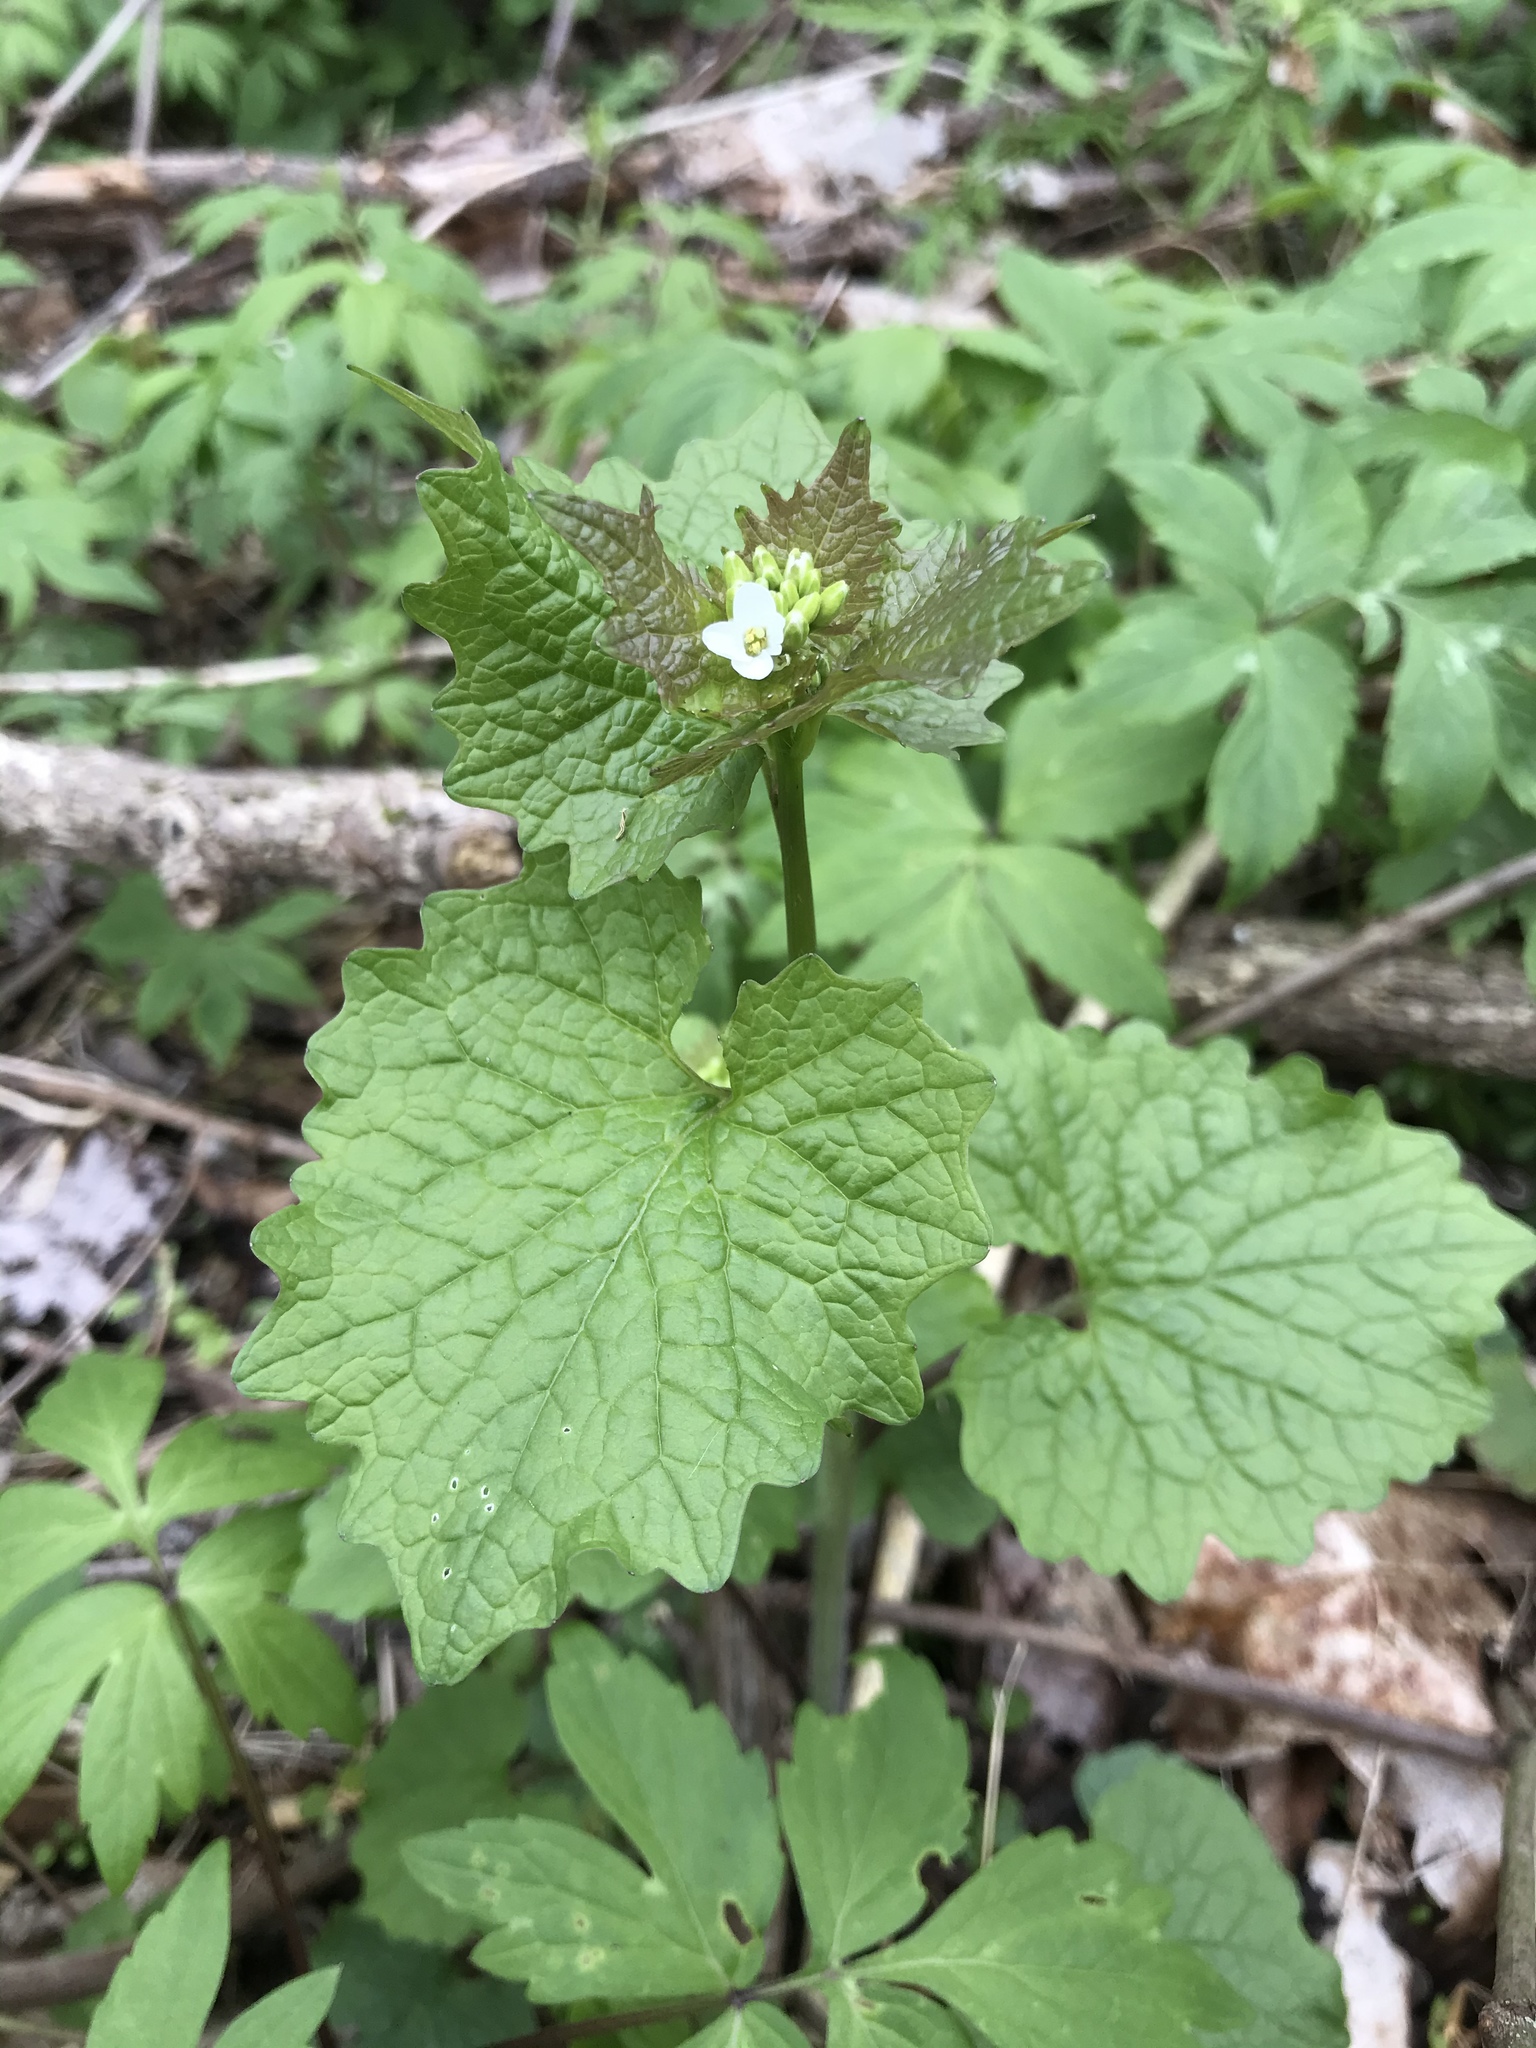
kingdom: Plantae
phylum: Tracheophyta
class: Magnoliopsida
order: Brassicales
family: Brassicaceae
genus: Alliaria
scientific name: Alliaria petiolata
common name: Garlic mustard
